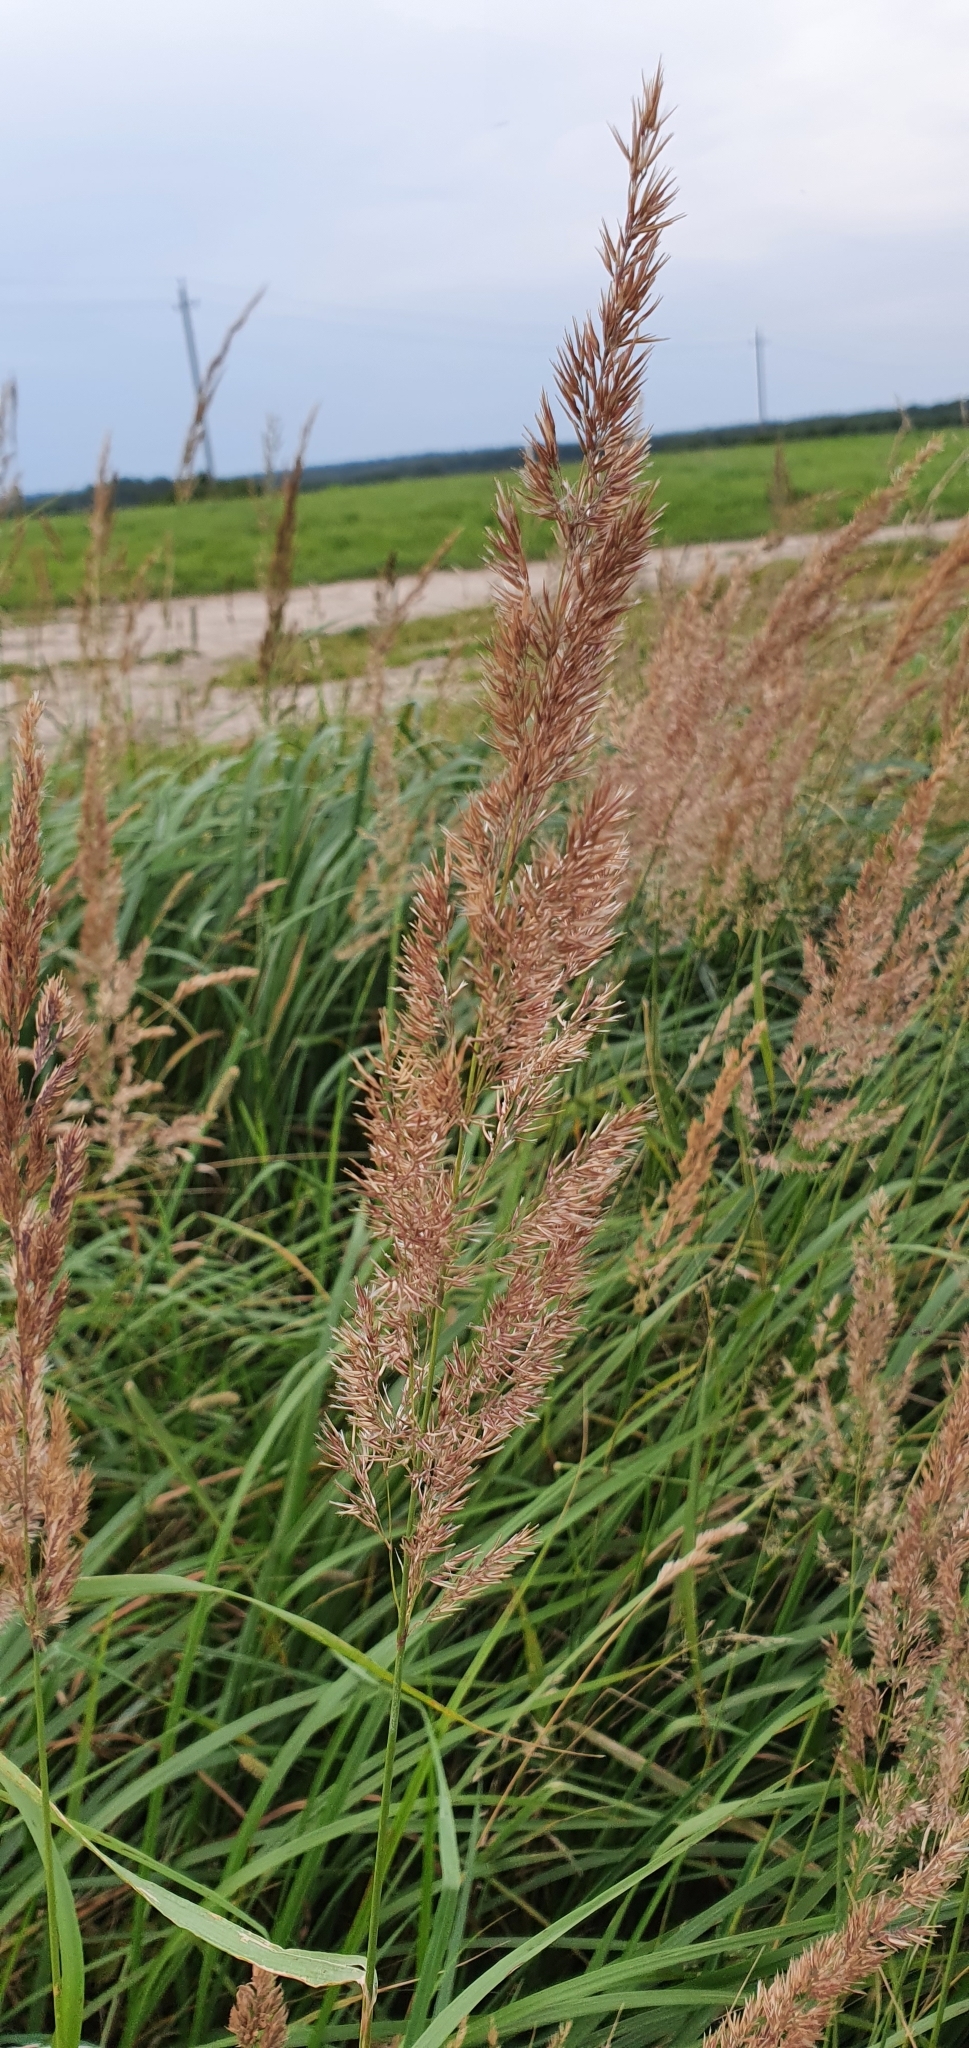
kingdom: Plantae
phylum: Tracheophyta
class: Liliopsida
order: Poales
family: Poaceae
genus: Calamagrostis
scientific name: Calamagrostis epigejos
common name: Wood small-reed
